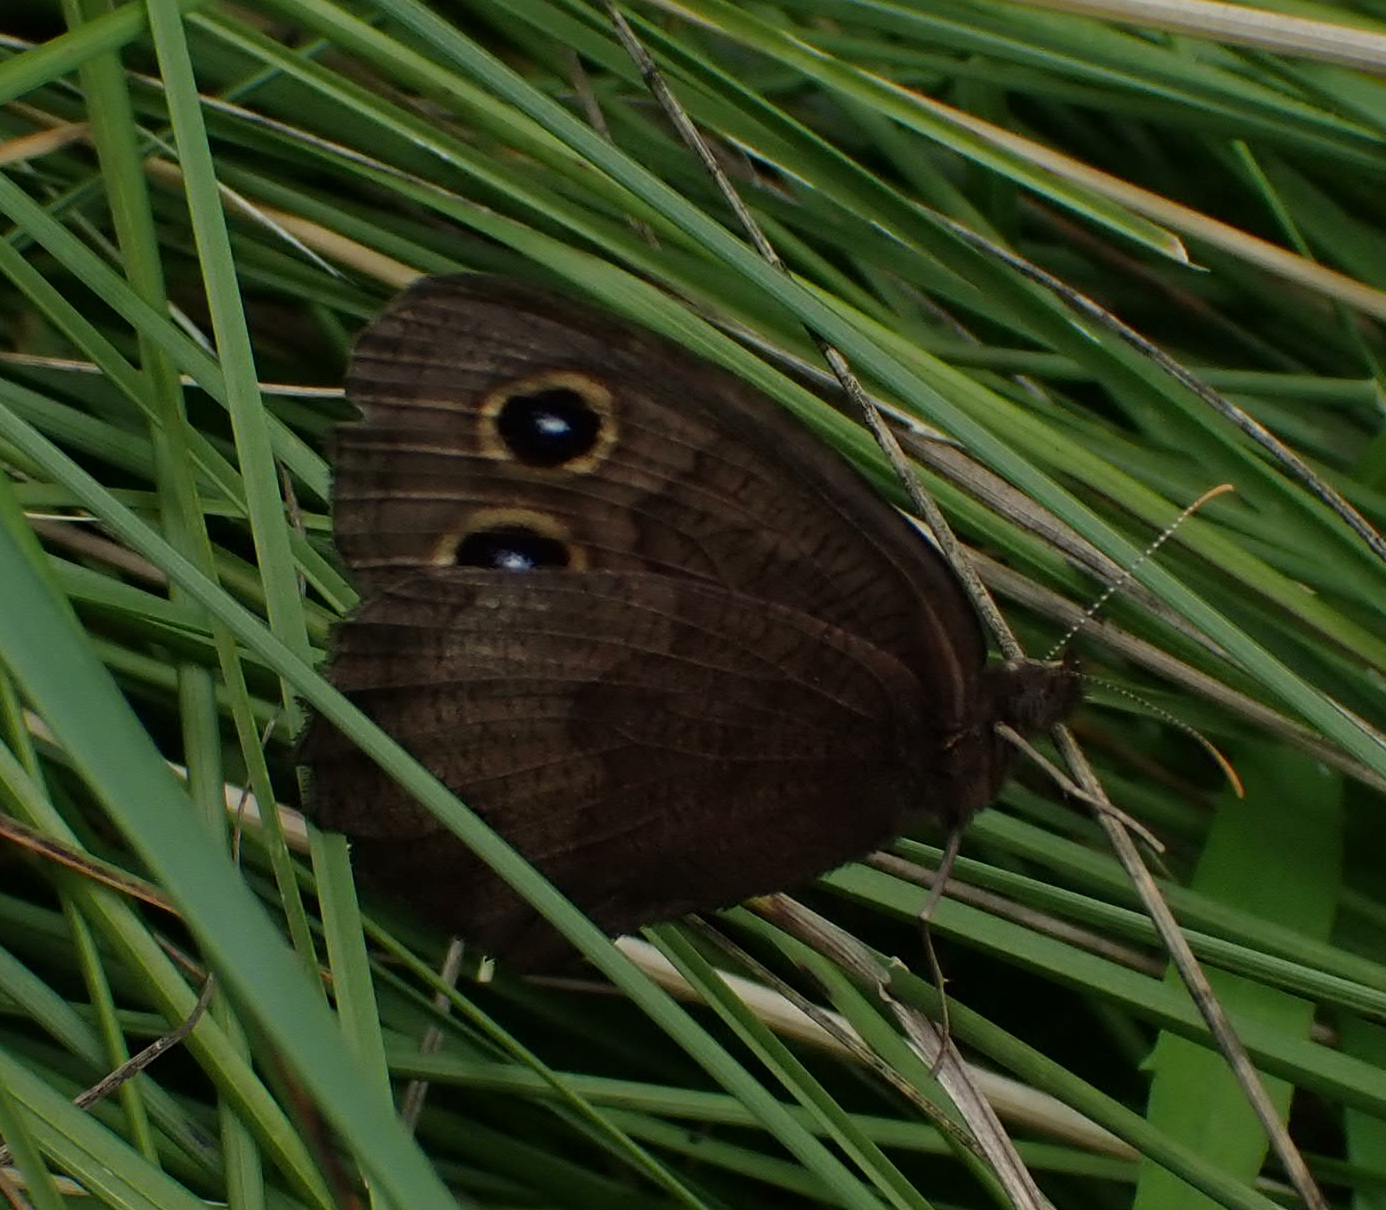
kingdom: Animalia
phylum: Arthropoda
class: Insecta
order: Lepidoptera
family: Nymphalidae
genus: Cercyonis
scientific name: Cercyonis pegala
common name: Common wood-nymph
